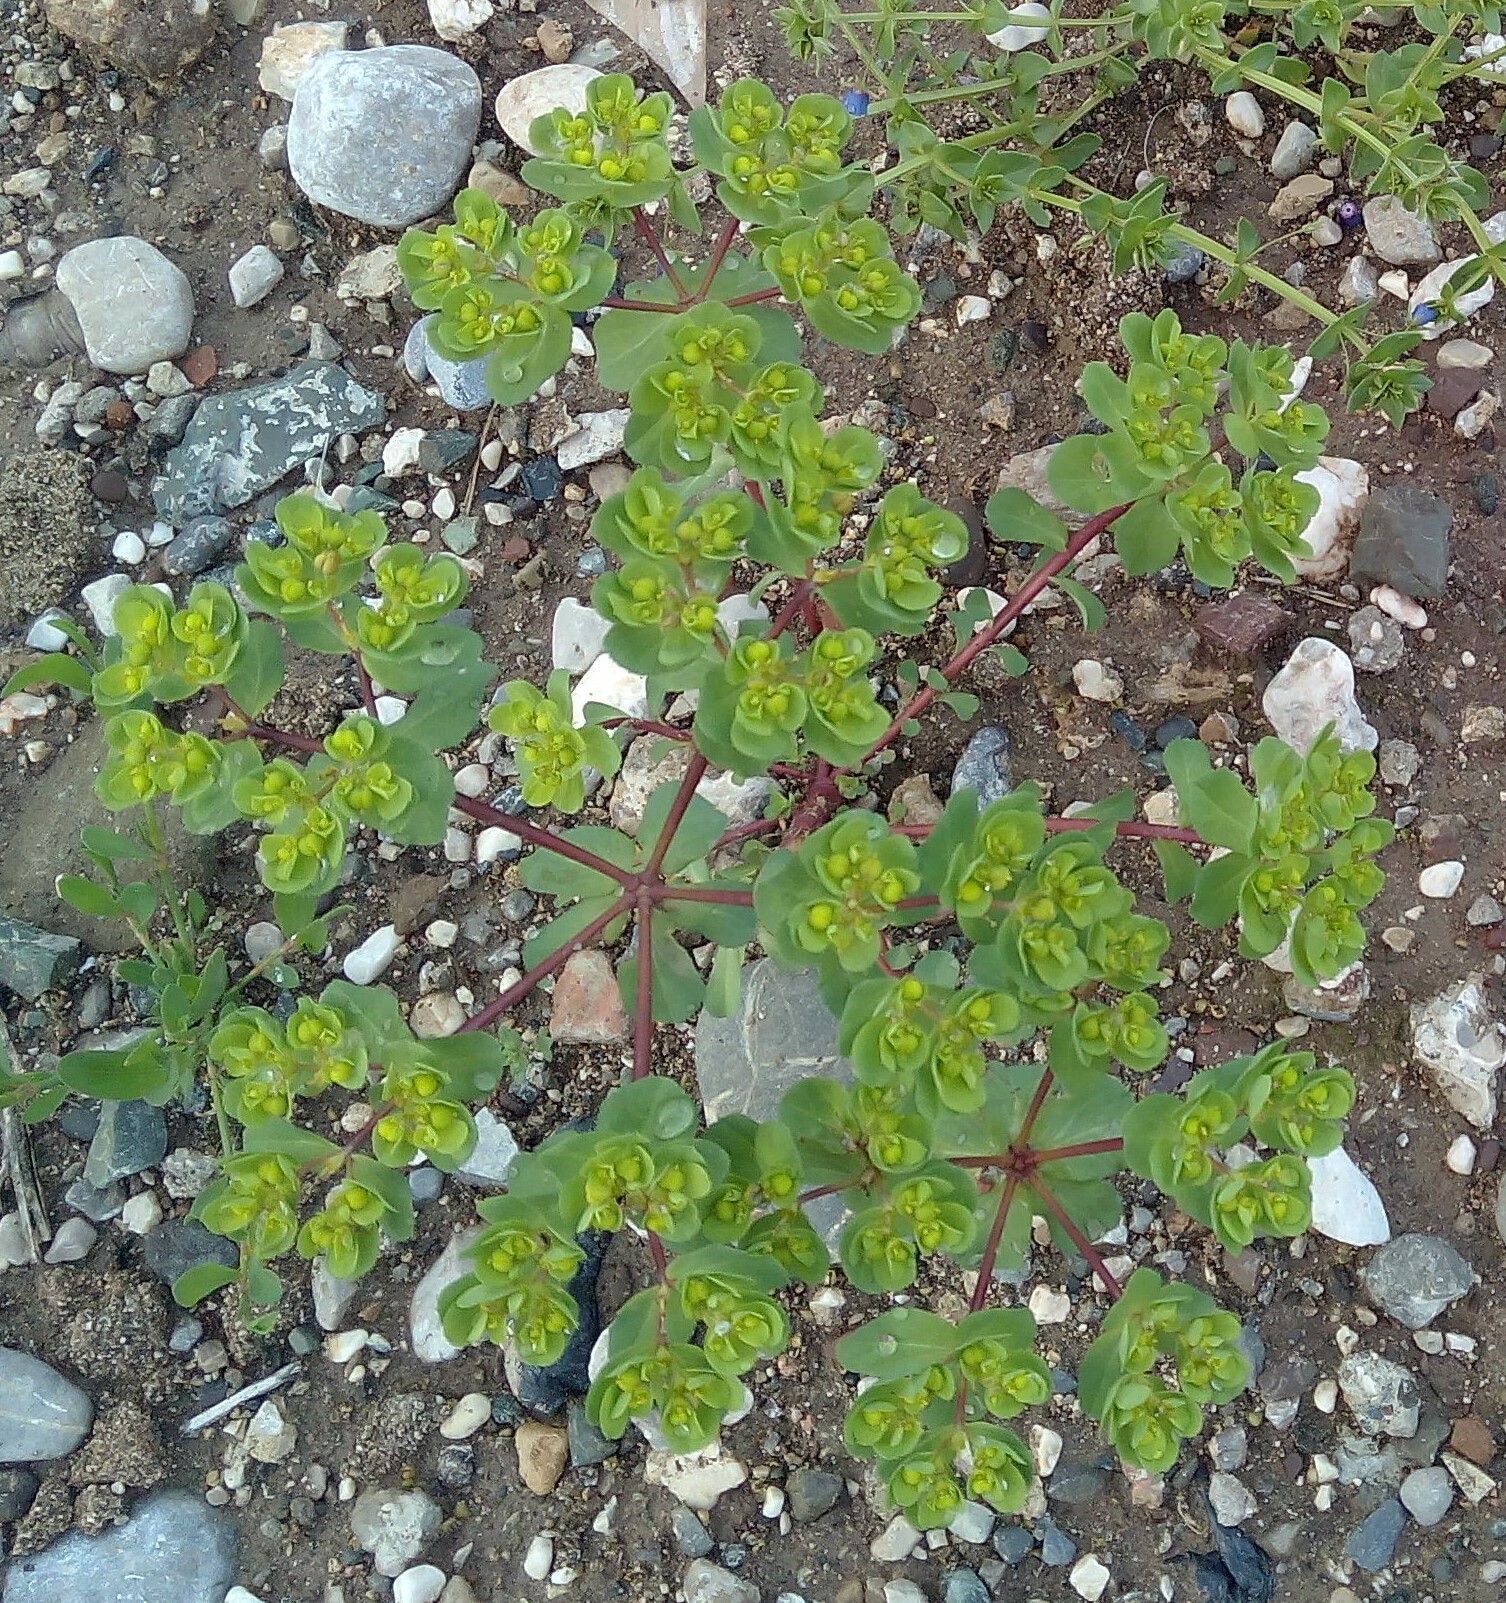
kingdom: Plantae
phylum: Tracheophyta
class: Magnoliopsida
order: Malpighiales
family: Euphorbiaceae
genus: Euphorbia
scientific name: Euphorbia helioscopia
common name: Sun spurge
